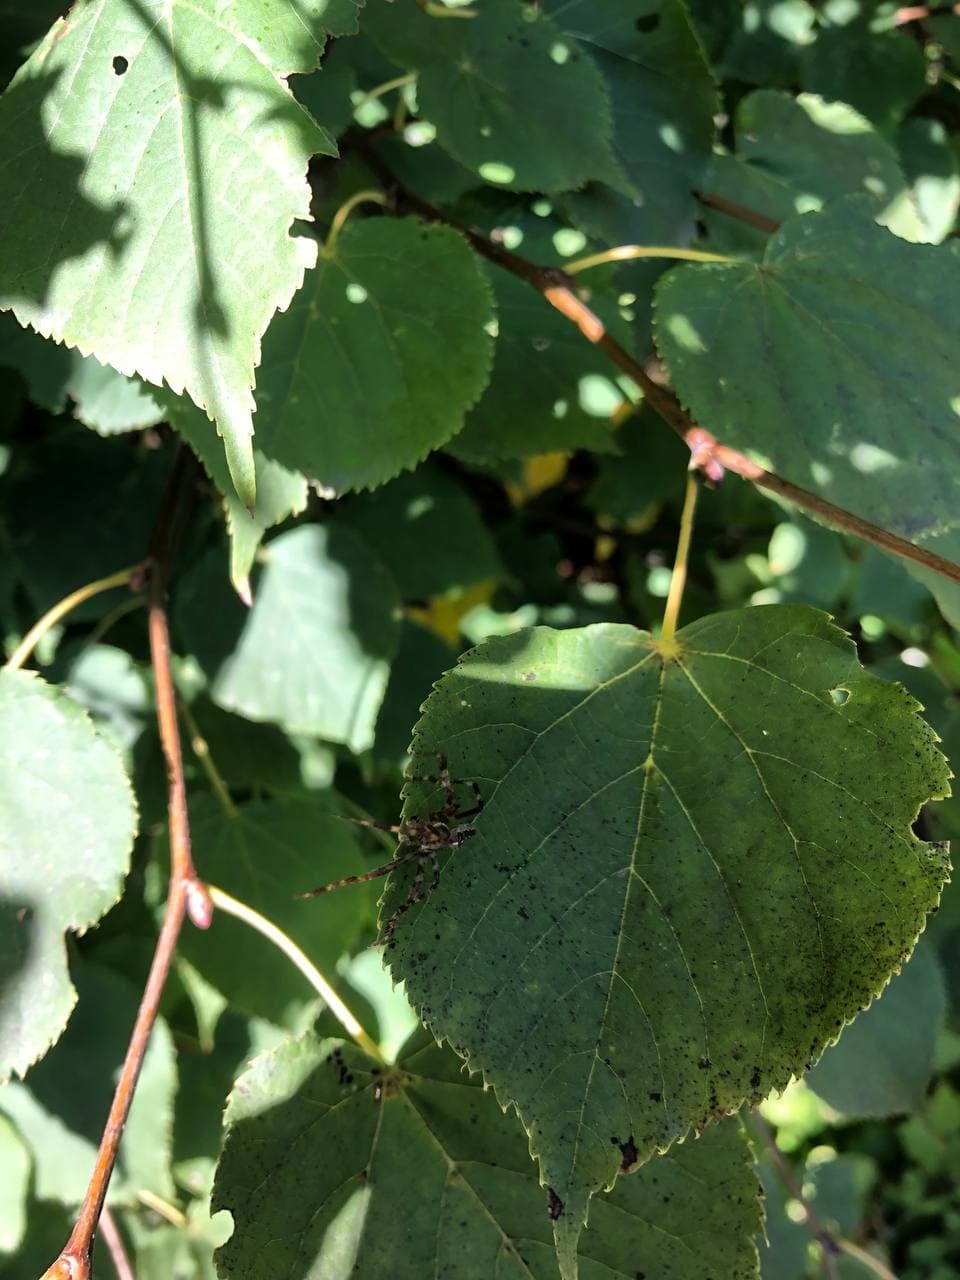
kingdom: Animalia
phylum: Arthropoda
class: Arachnida
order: Araneae
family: Araneidae
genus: Araneus
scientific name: Araneus diadematus
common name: Cross orbweaver
